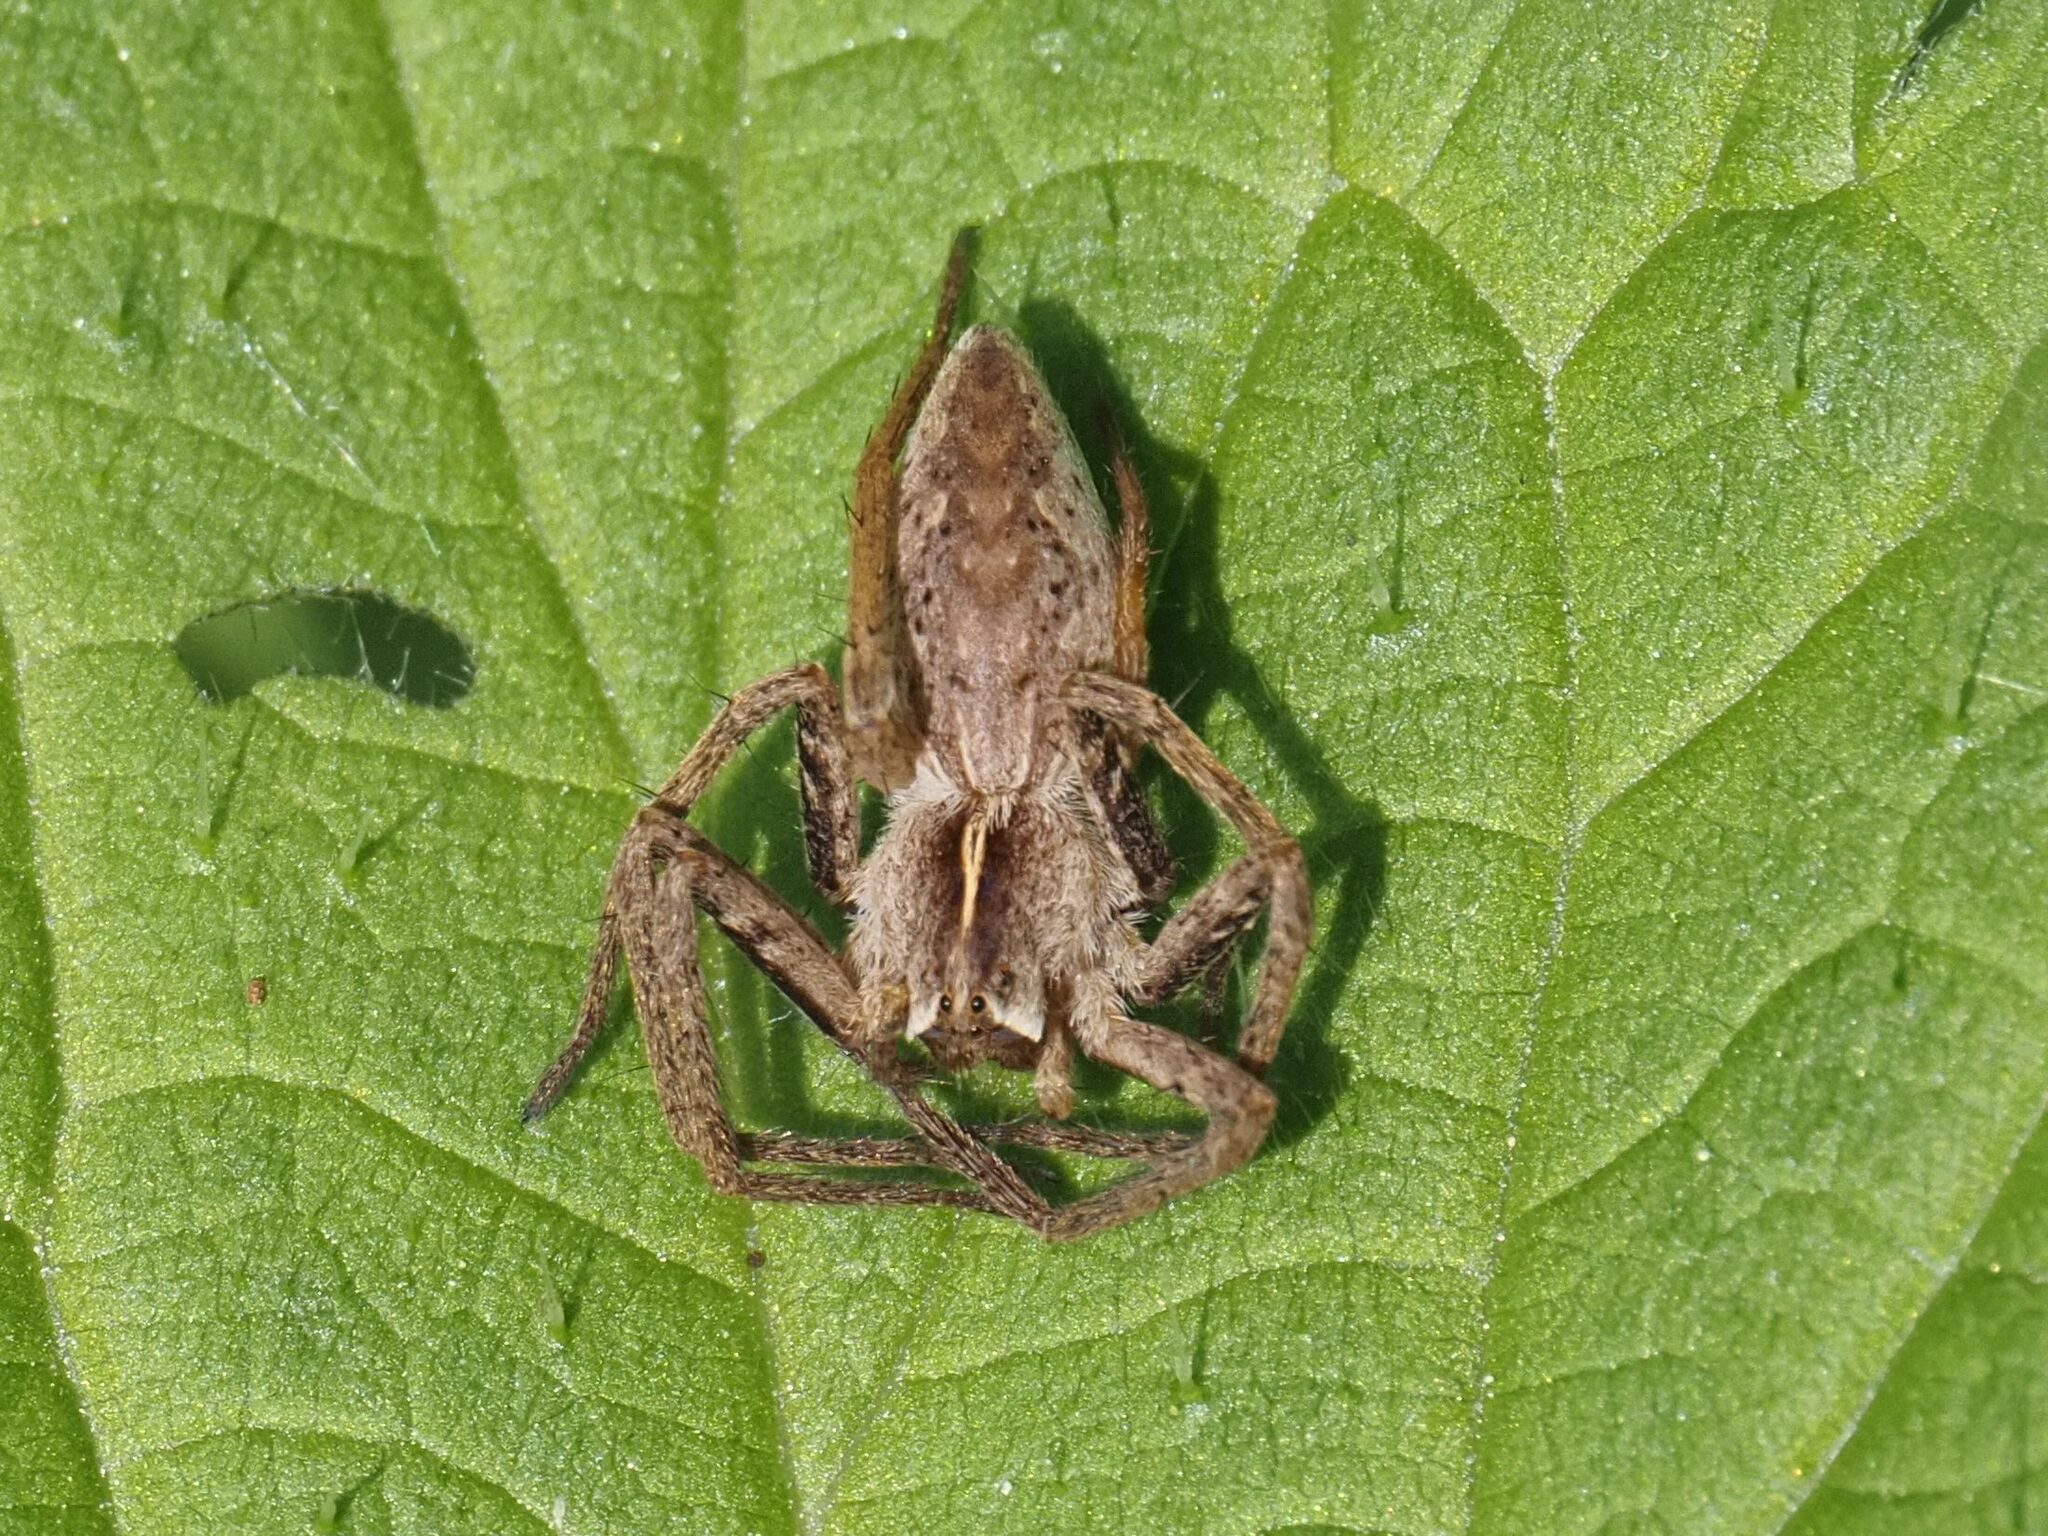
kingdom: Animalia
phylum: Arthropoda
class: Arachnida
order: Araneae
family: Pisauridae
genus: Pisaura
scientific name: Pisaura mirabilis
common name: Tent spider
